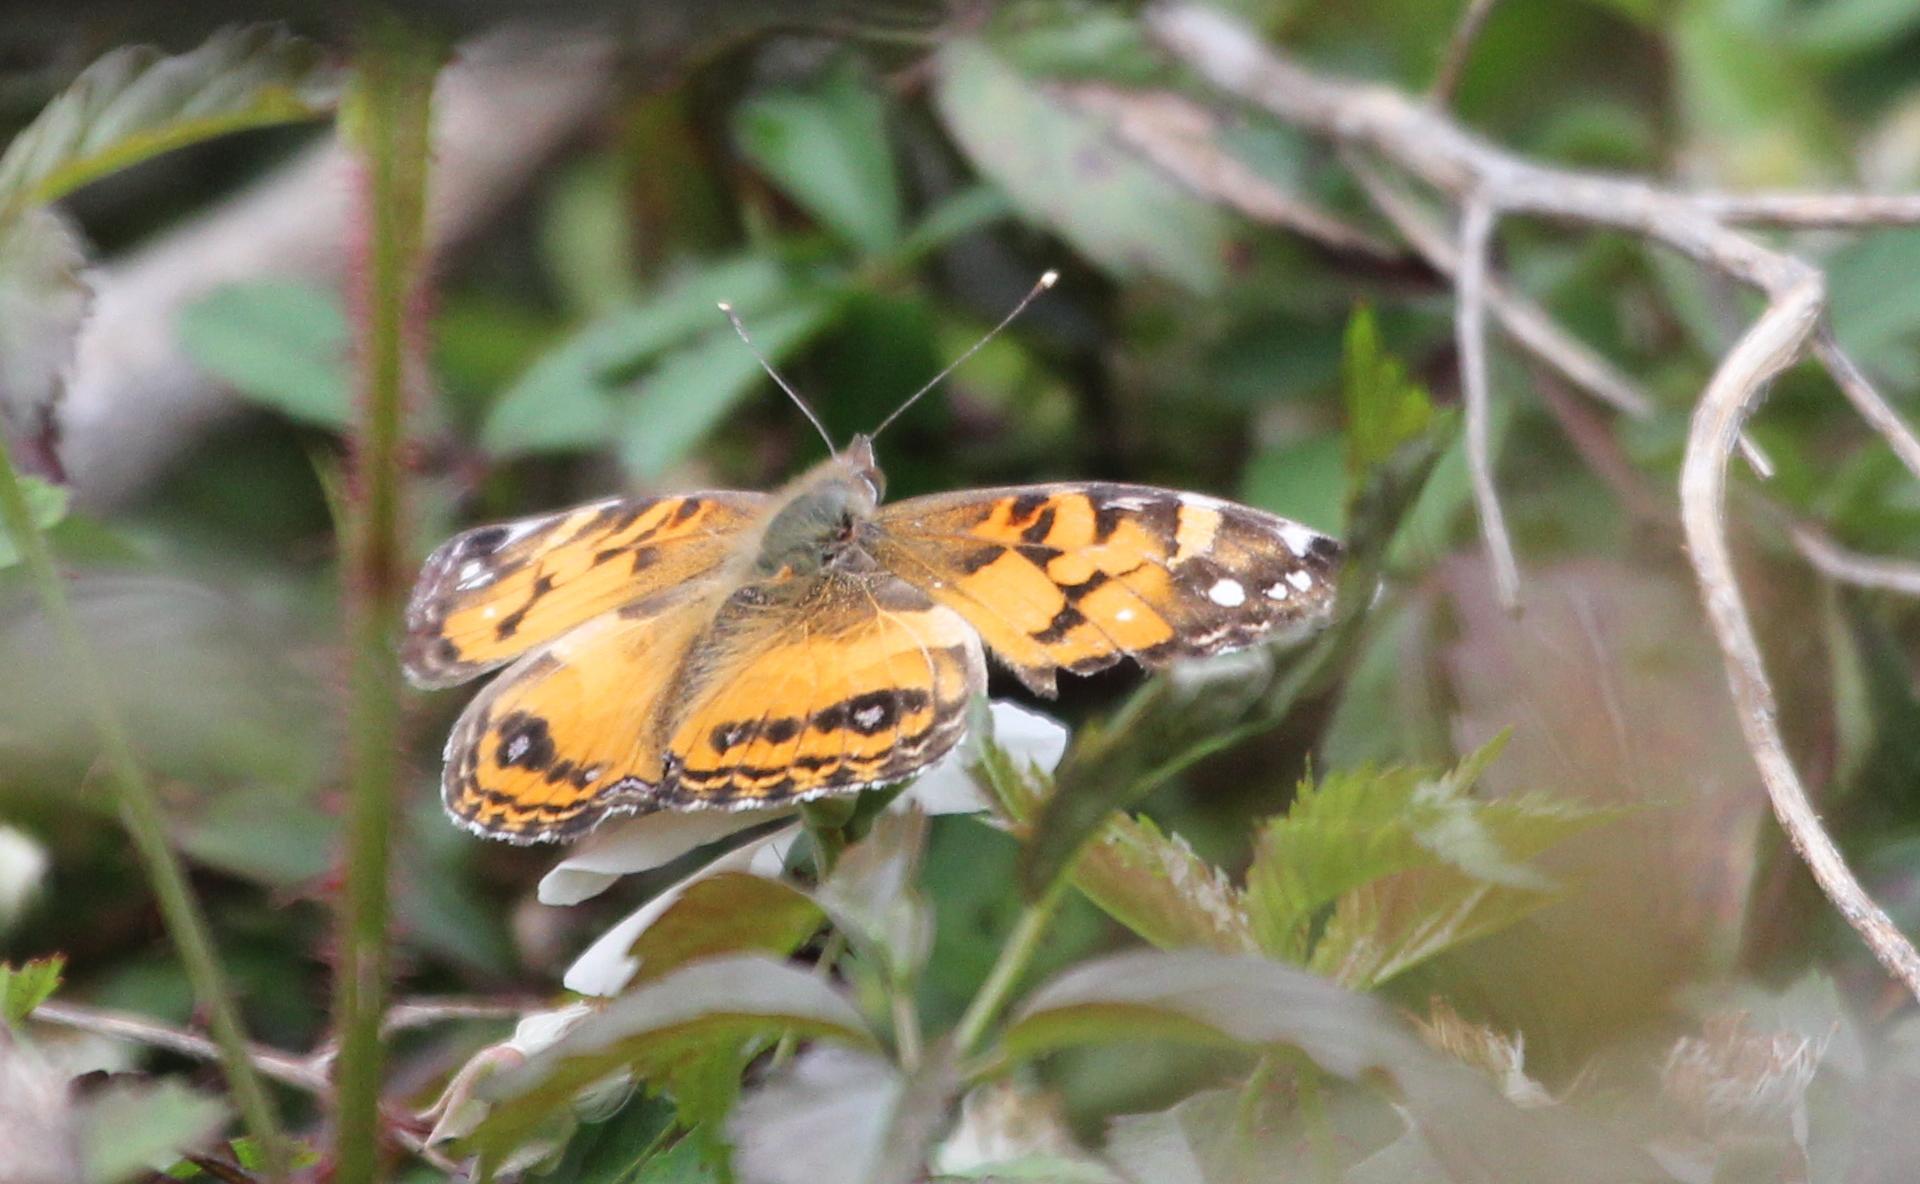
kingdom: Animalia
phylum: Arthropoda
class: Insecta
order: Lepidoptera
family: Nymphalidae
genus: Vanessa
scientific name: Vanessa virginiensis
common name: American lady
